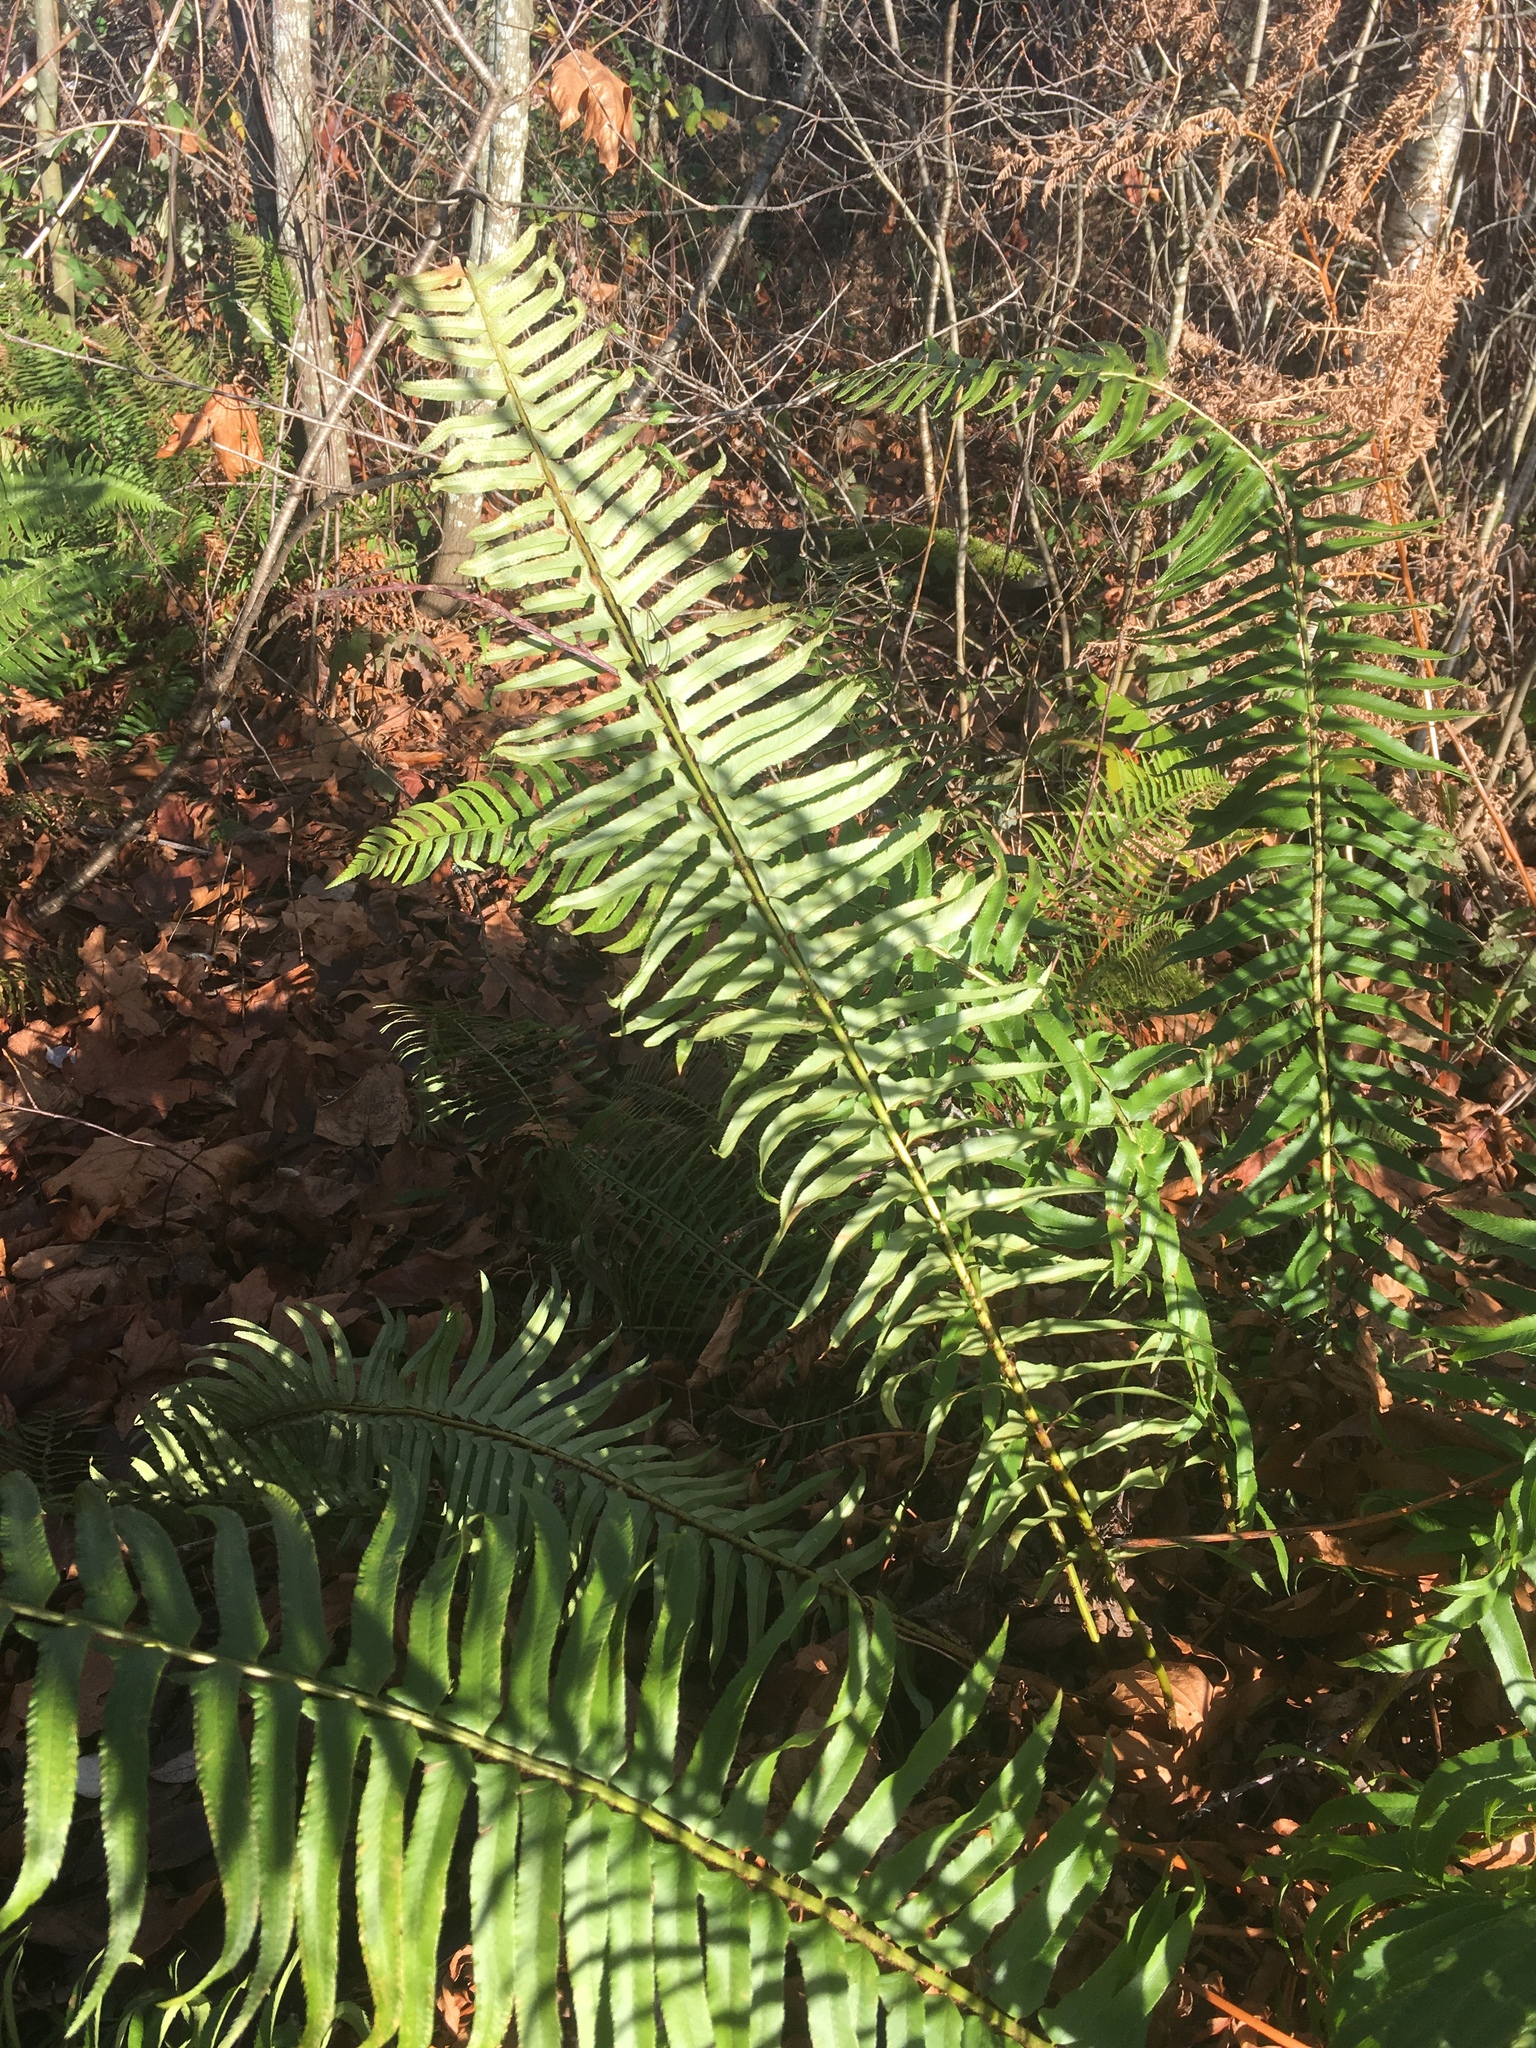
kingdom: Plantae
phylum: Tracheophyta
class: Polypodiopsida
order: Polypodiales
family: Dryopteridaceae
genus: Polystichum
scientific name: Polystichum munitum
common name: Western sword-fern
